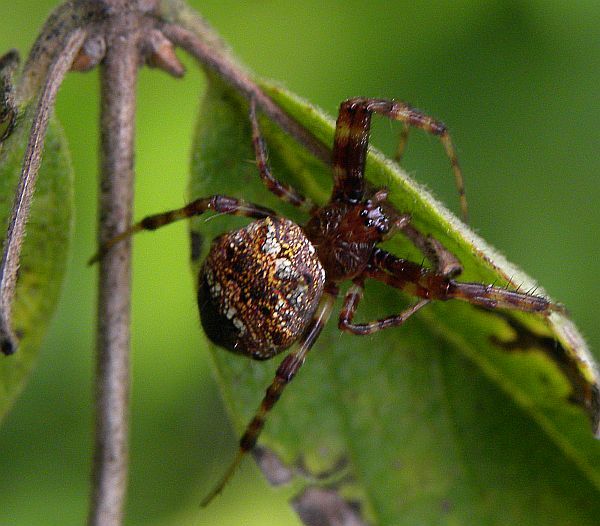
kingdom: Animalia
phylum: Arthropoda
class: Arachnida
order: Araneae
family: Araneidae
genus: Gea
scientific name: Gea heptagon
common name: Orb weavers
